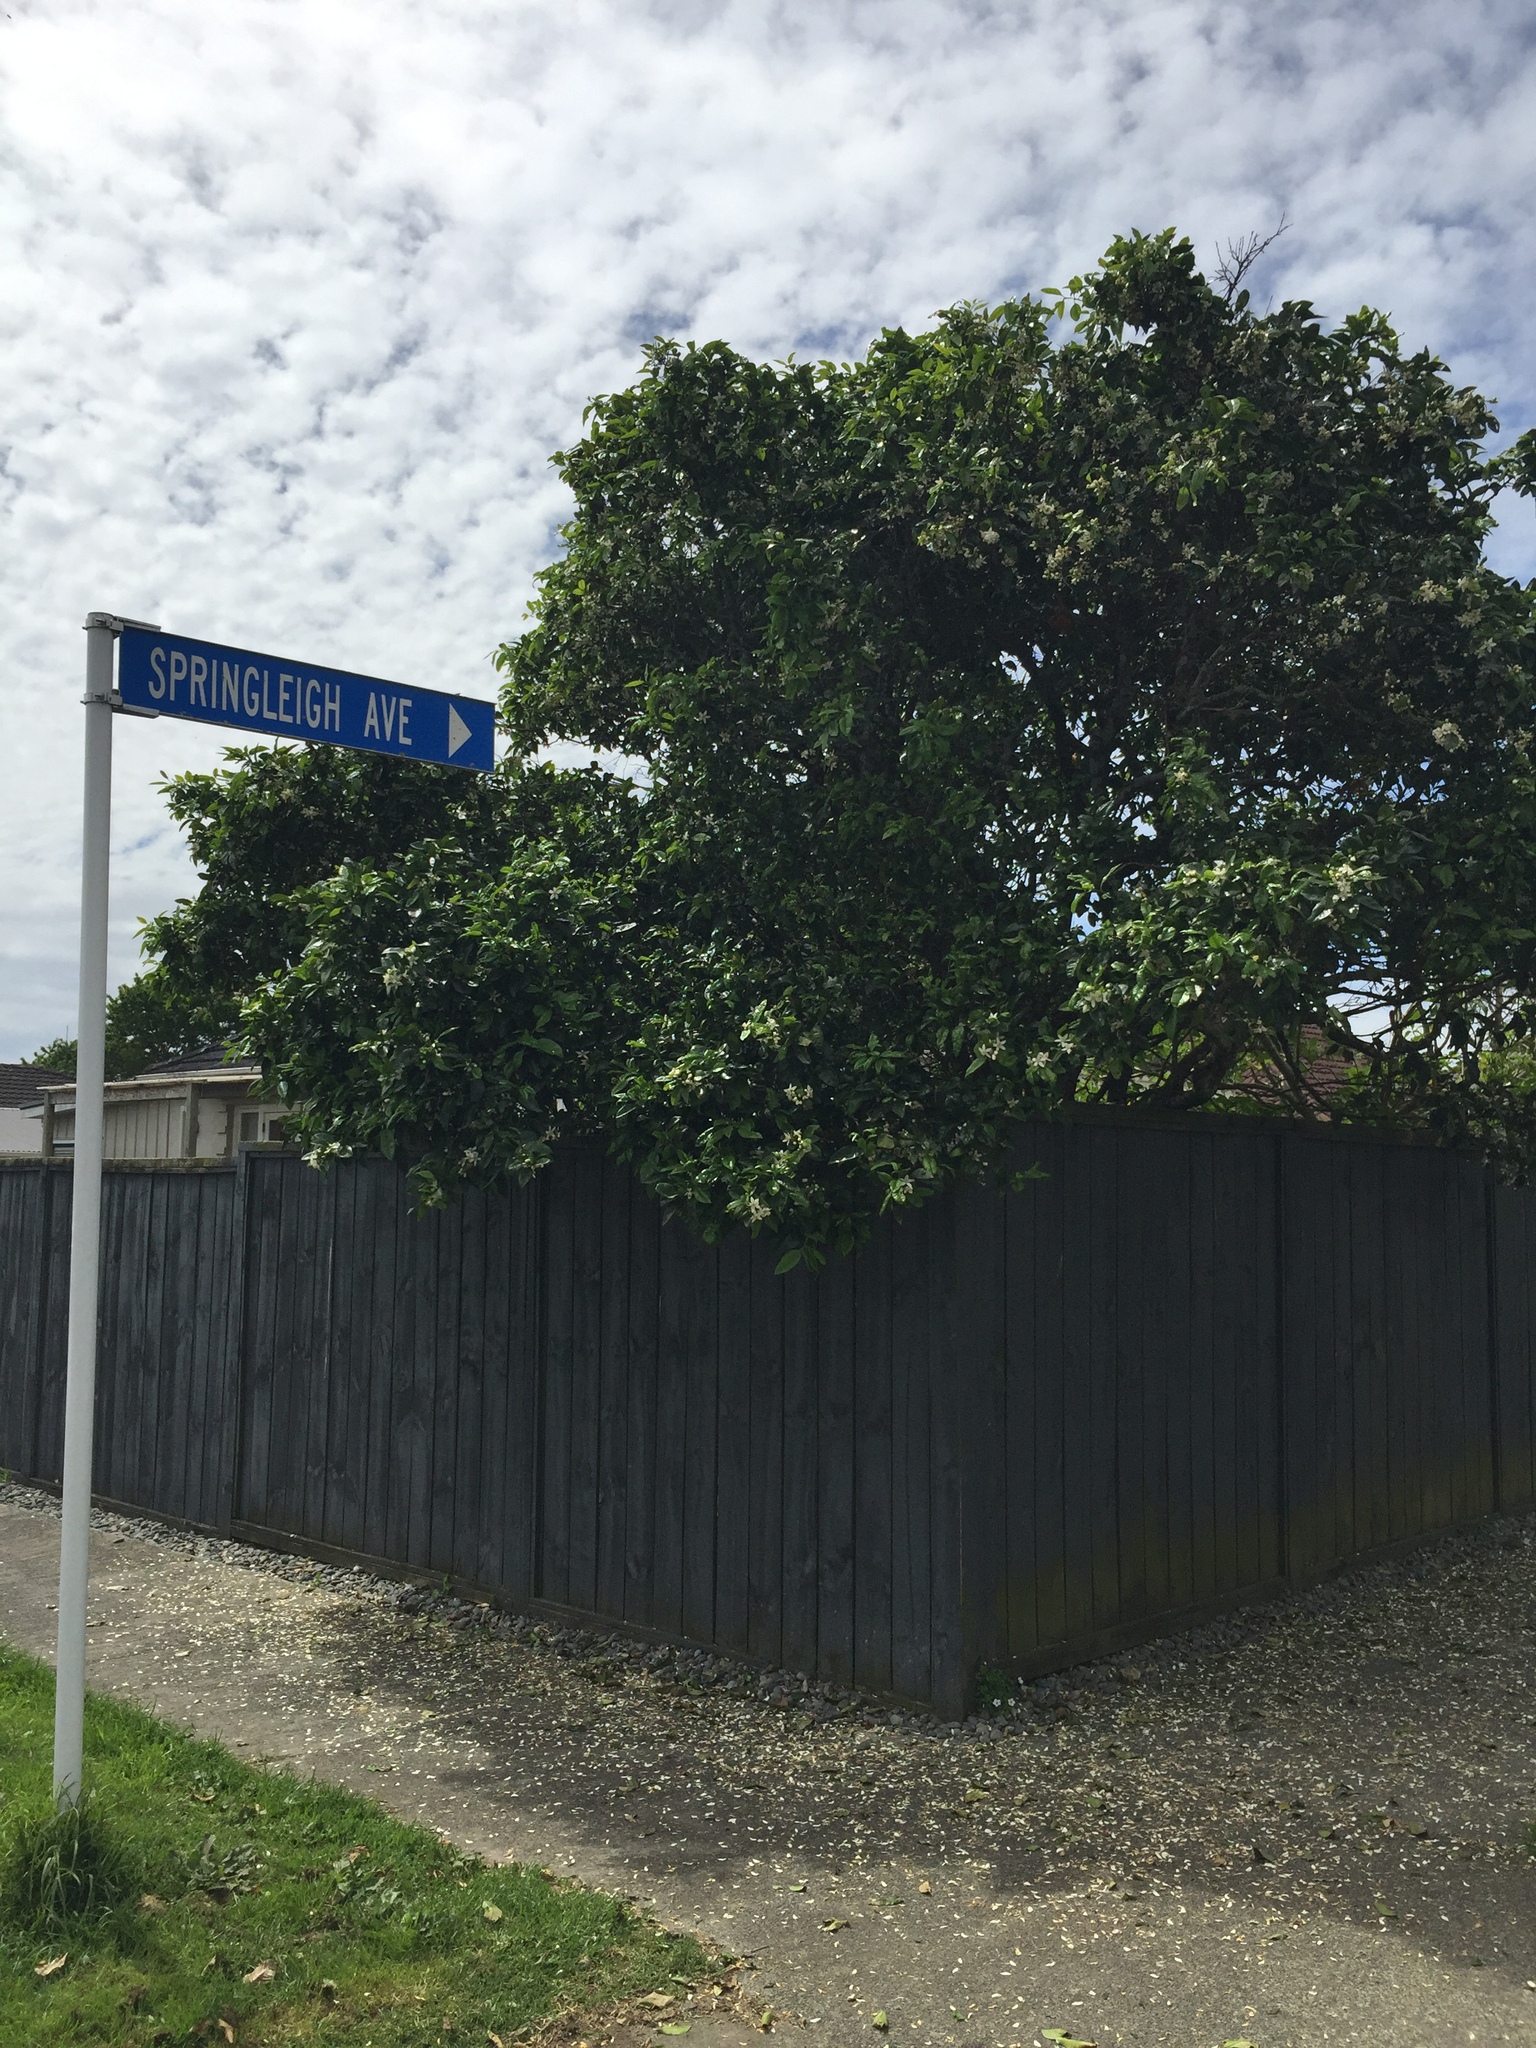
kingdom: Animalia
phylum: Arthropoda
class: Insecta
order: Hemiptera
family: Diaspididae
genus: Aonidiella
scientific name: Aonidiella aurantii
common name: California red scale
